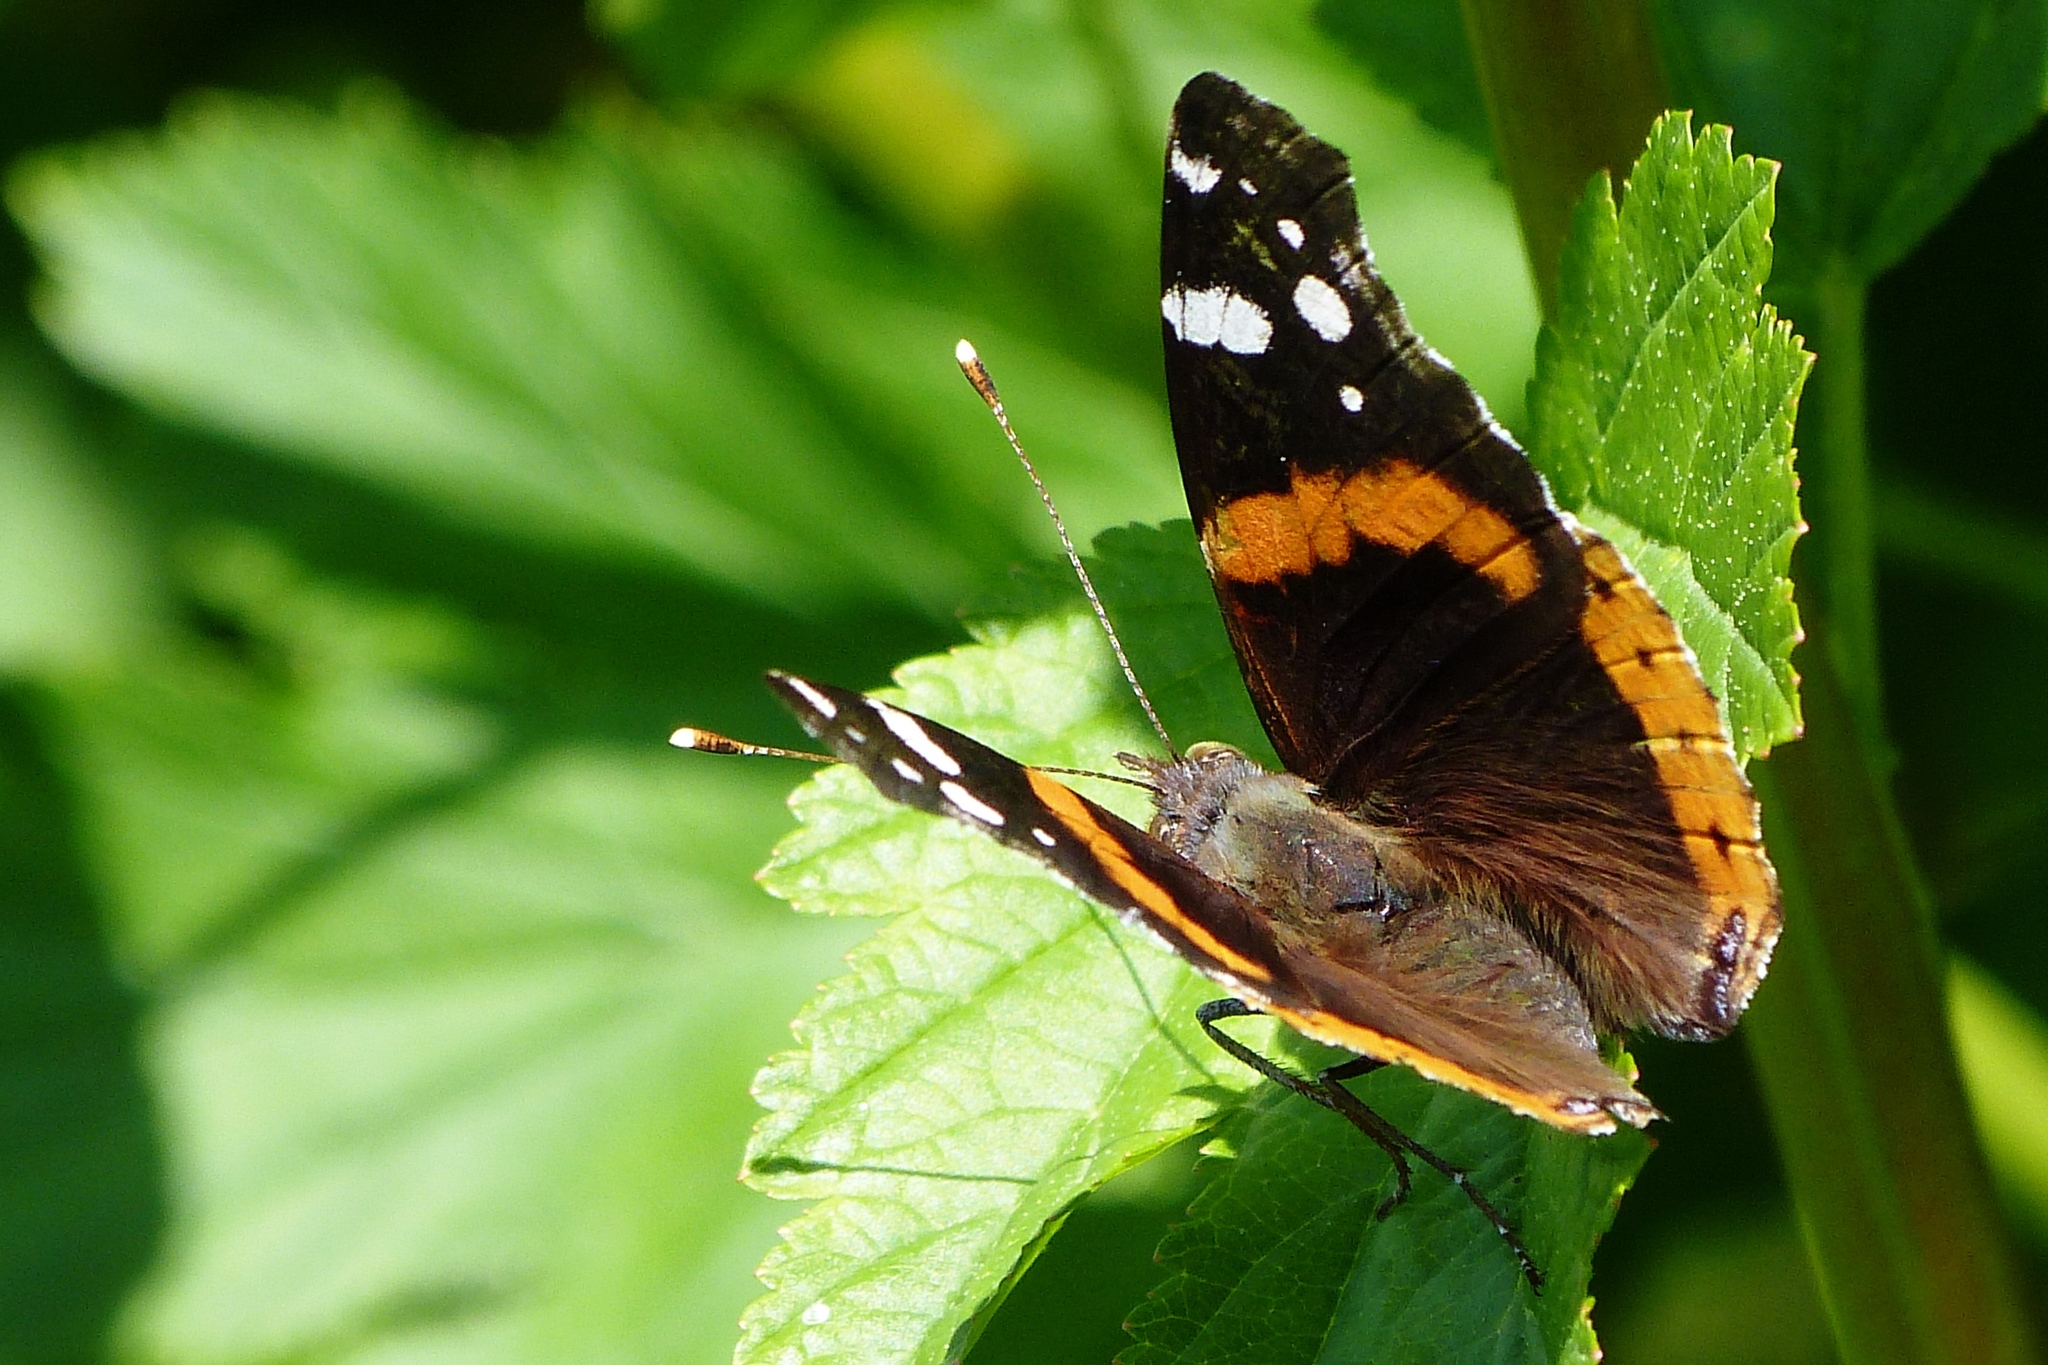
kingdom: Animalia
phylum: Arthropoda
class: Insecta
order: Lepidoptera
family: Nymphalidae
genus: Vanessa
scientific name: Vanessa atalanta
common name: Red admiral
